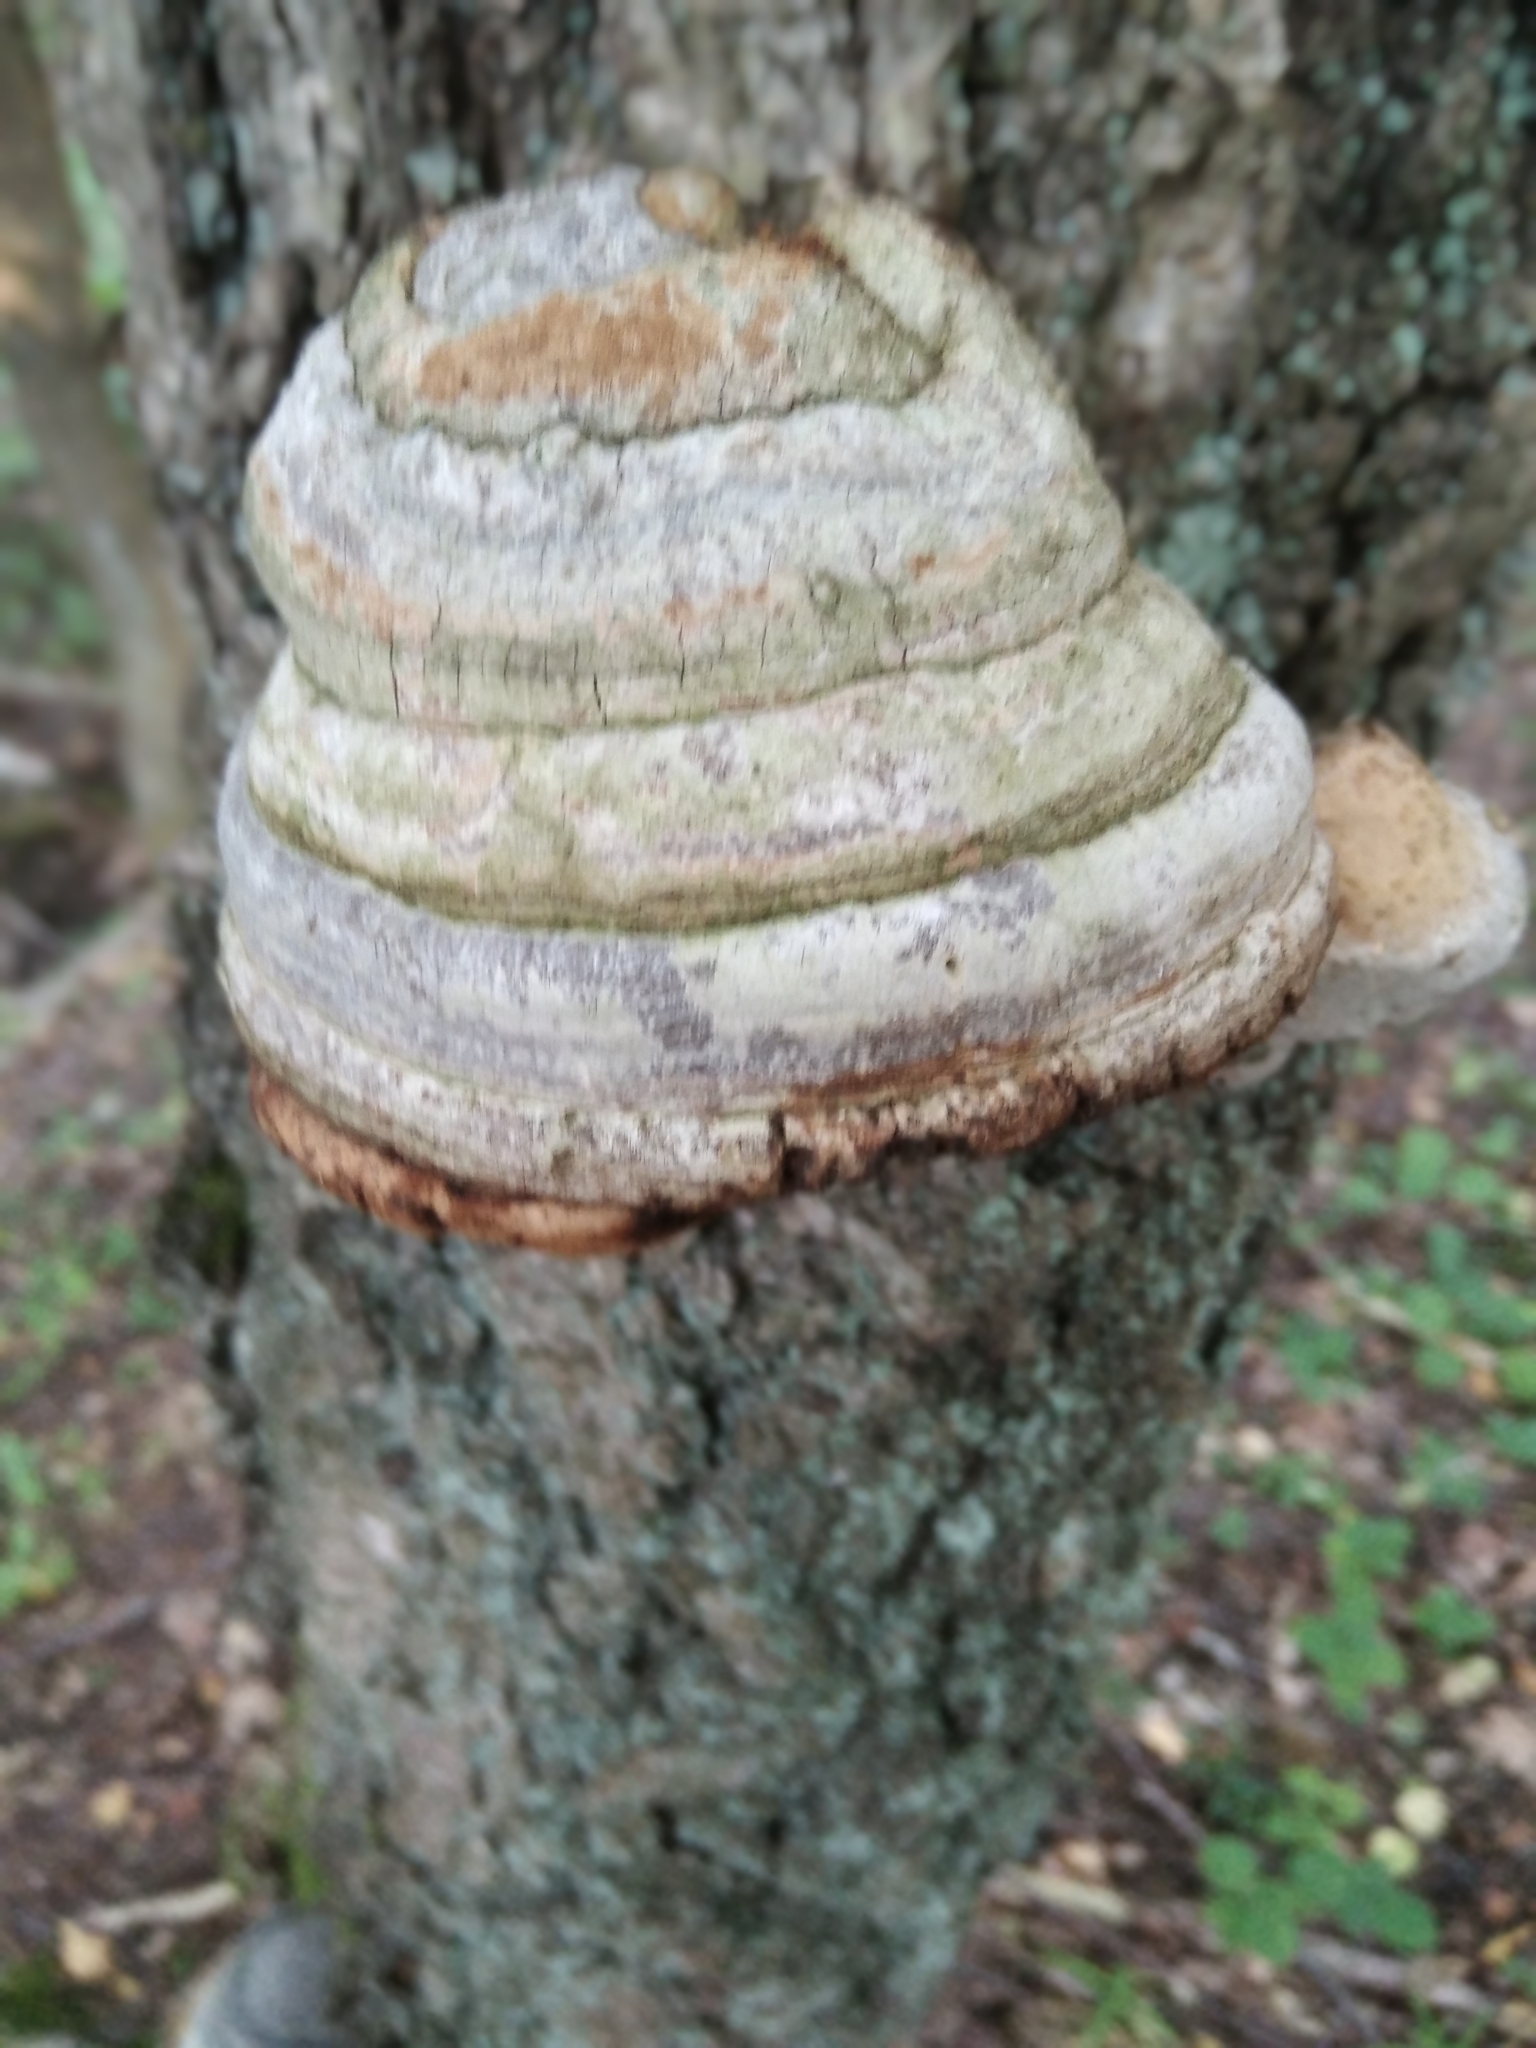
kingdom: Fungi
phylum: Basidiomycota
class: Agaricomycetes
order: Polyporales
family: Polyporaceae
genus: Fomes
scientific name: Fomes fomentarius
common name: Hoof fungus
